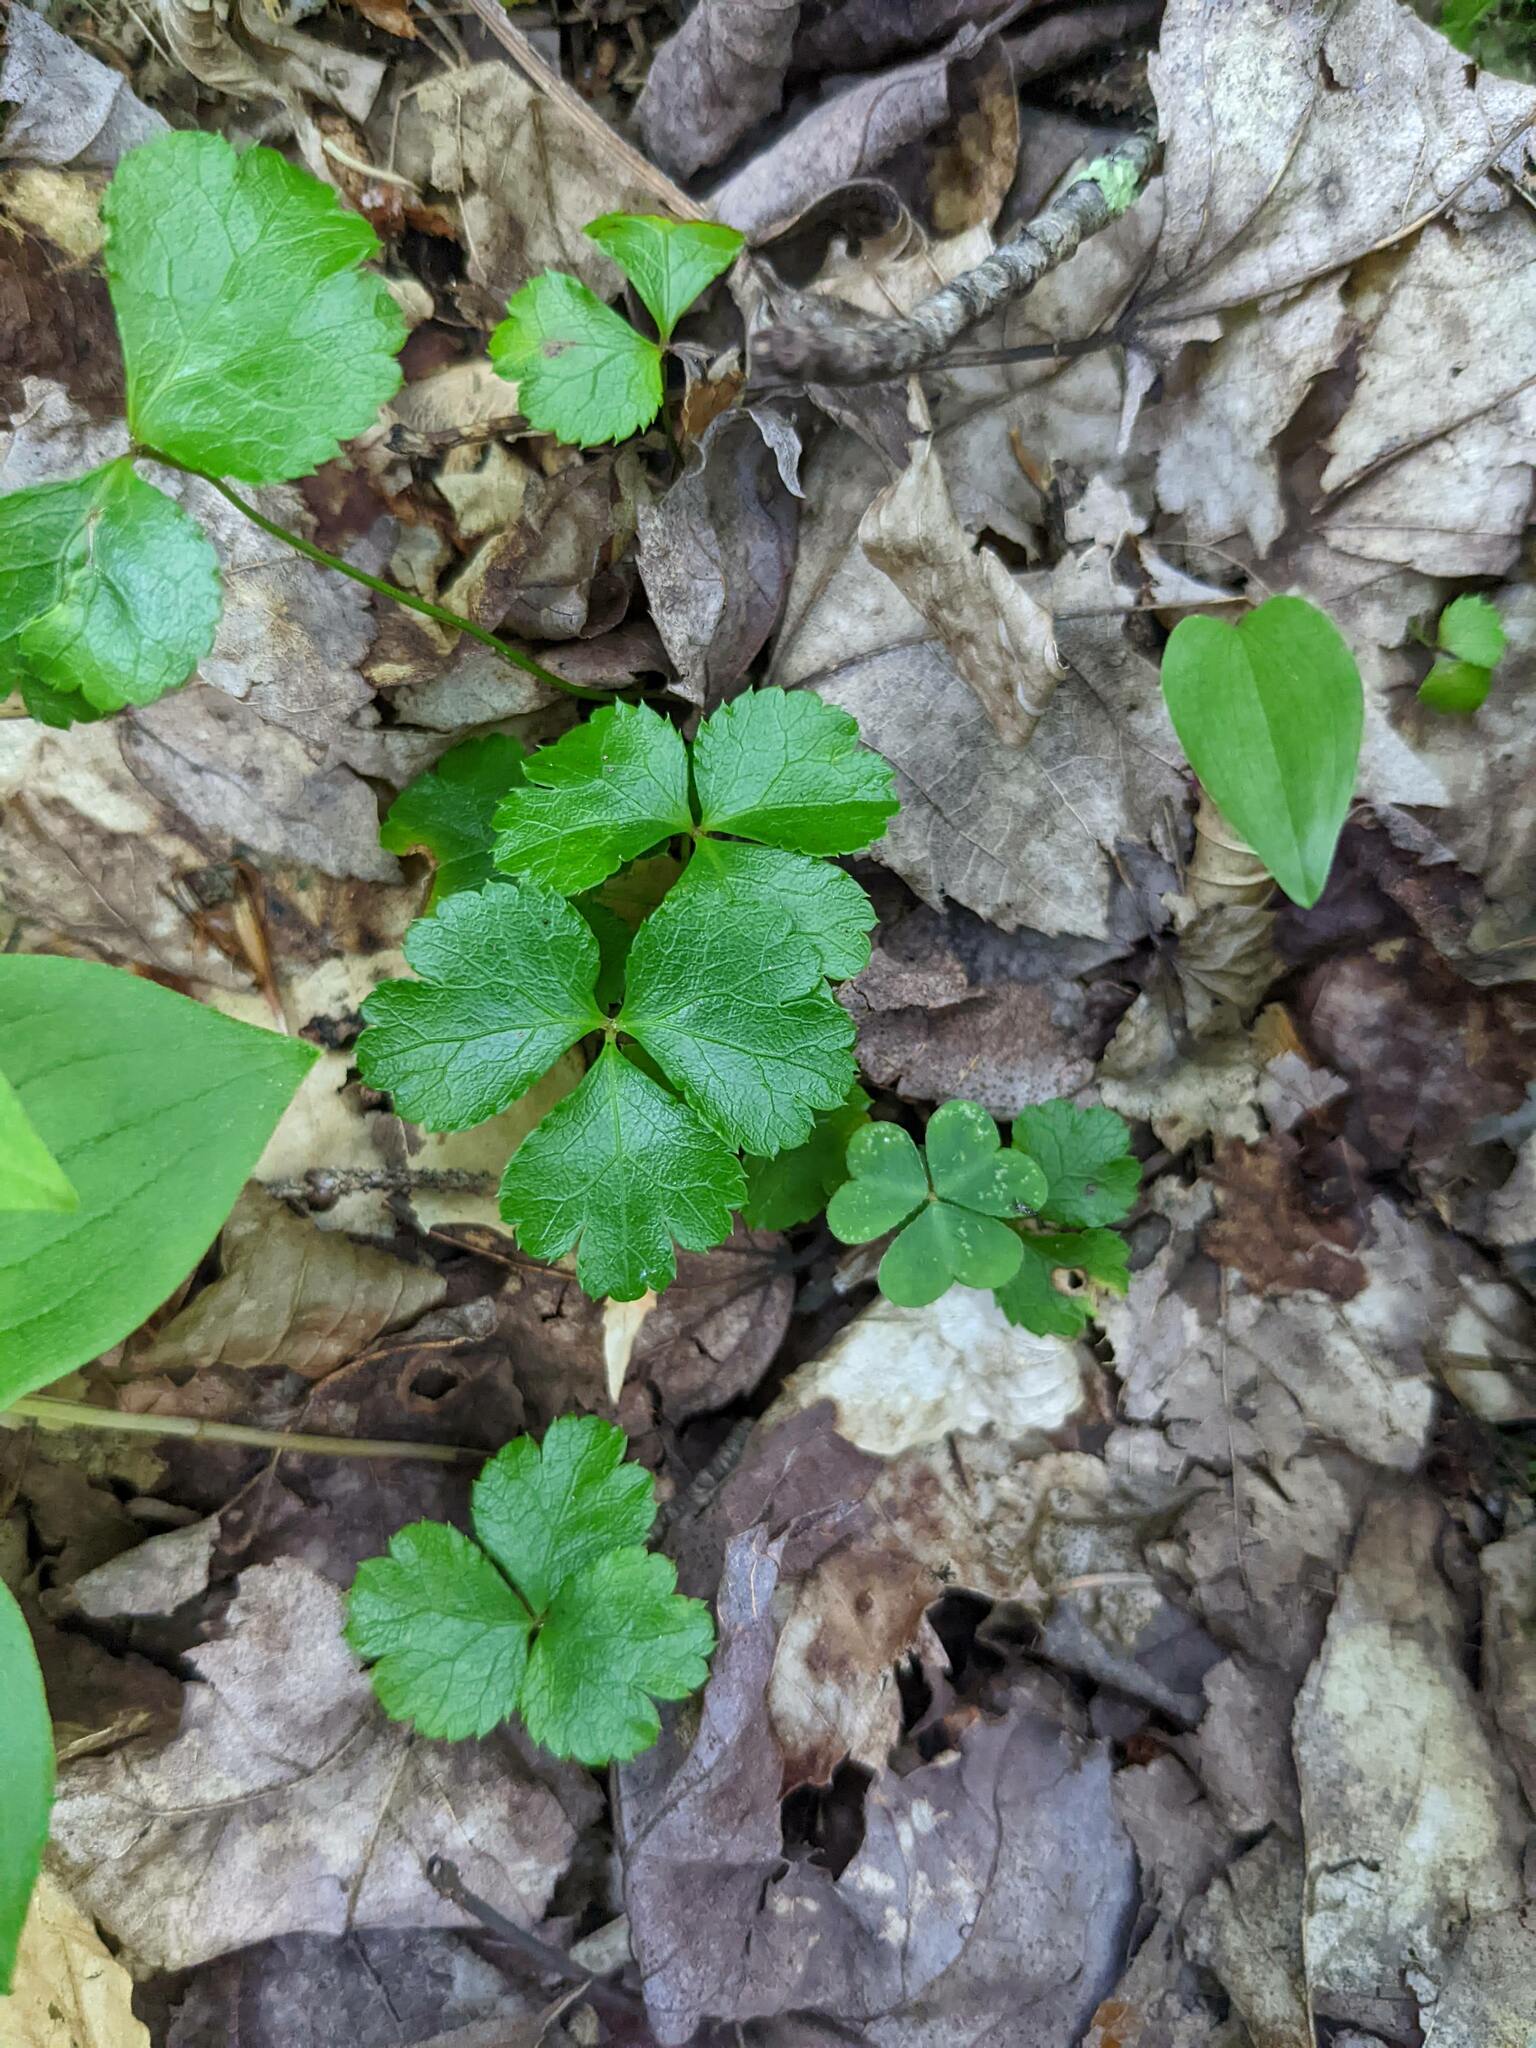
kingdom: Plantae
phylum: Tracheophyta
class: Magnoliopsida
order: Ranunculales
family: Ranunculaceae
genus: Coptis
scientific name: Coptis trifolia
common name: Canker-root
